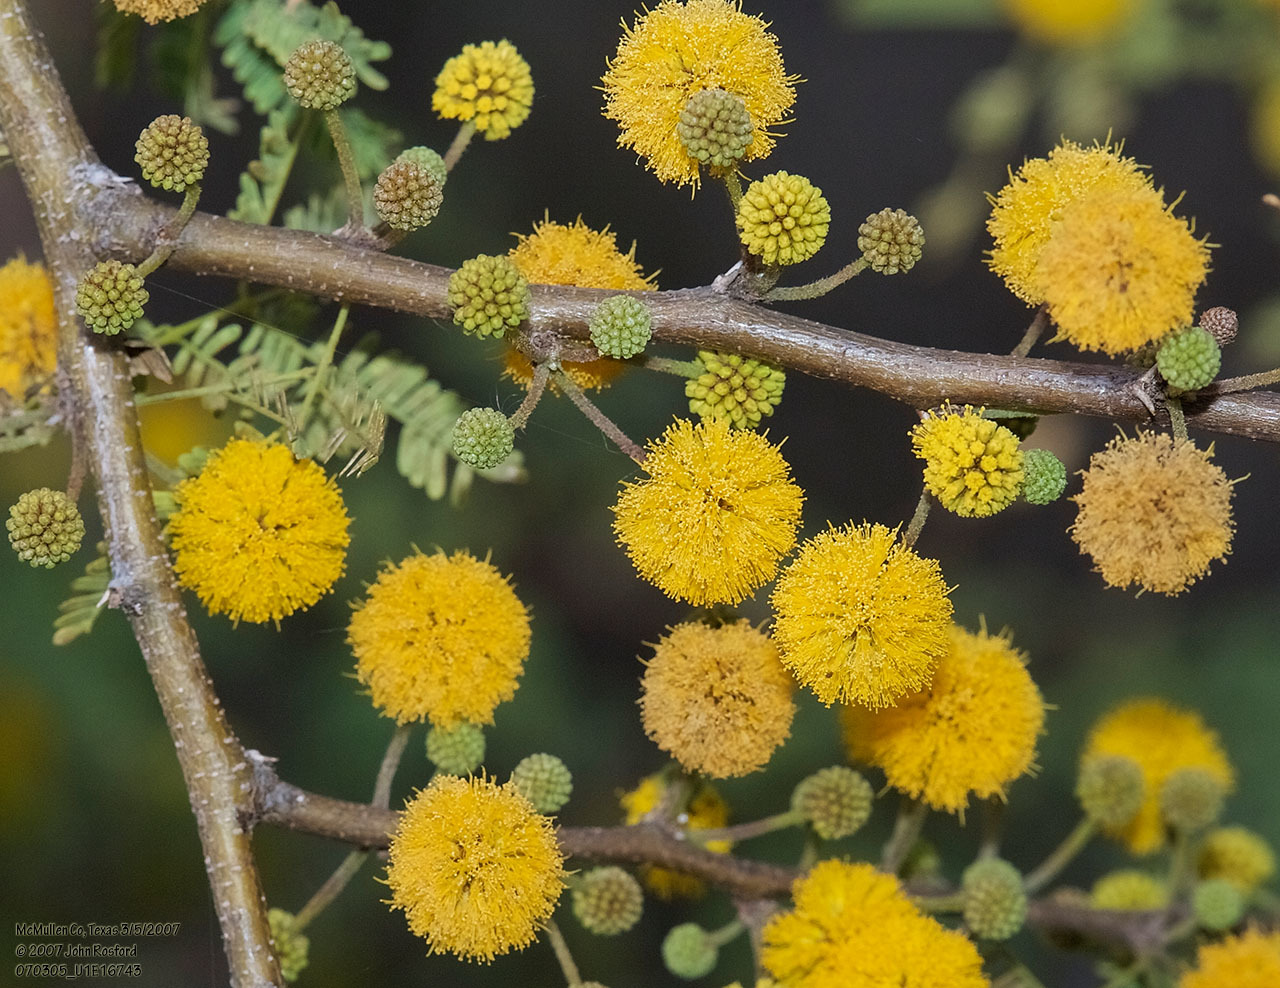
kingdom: Plantae
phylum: Tracheophyta
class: Magnoliopsida
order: Fabales
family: Fabaceae
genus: Vachellia
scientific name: Vachellia farnesiana
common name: Sweet acacia
